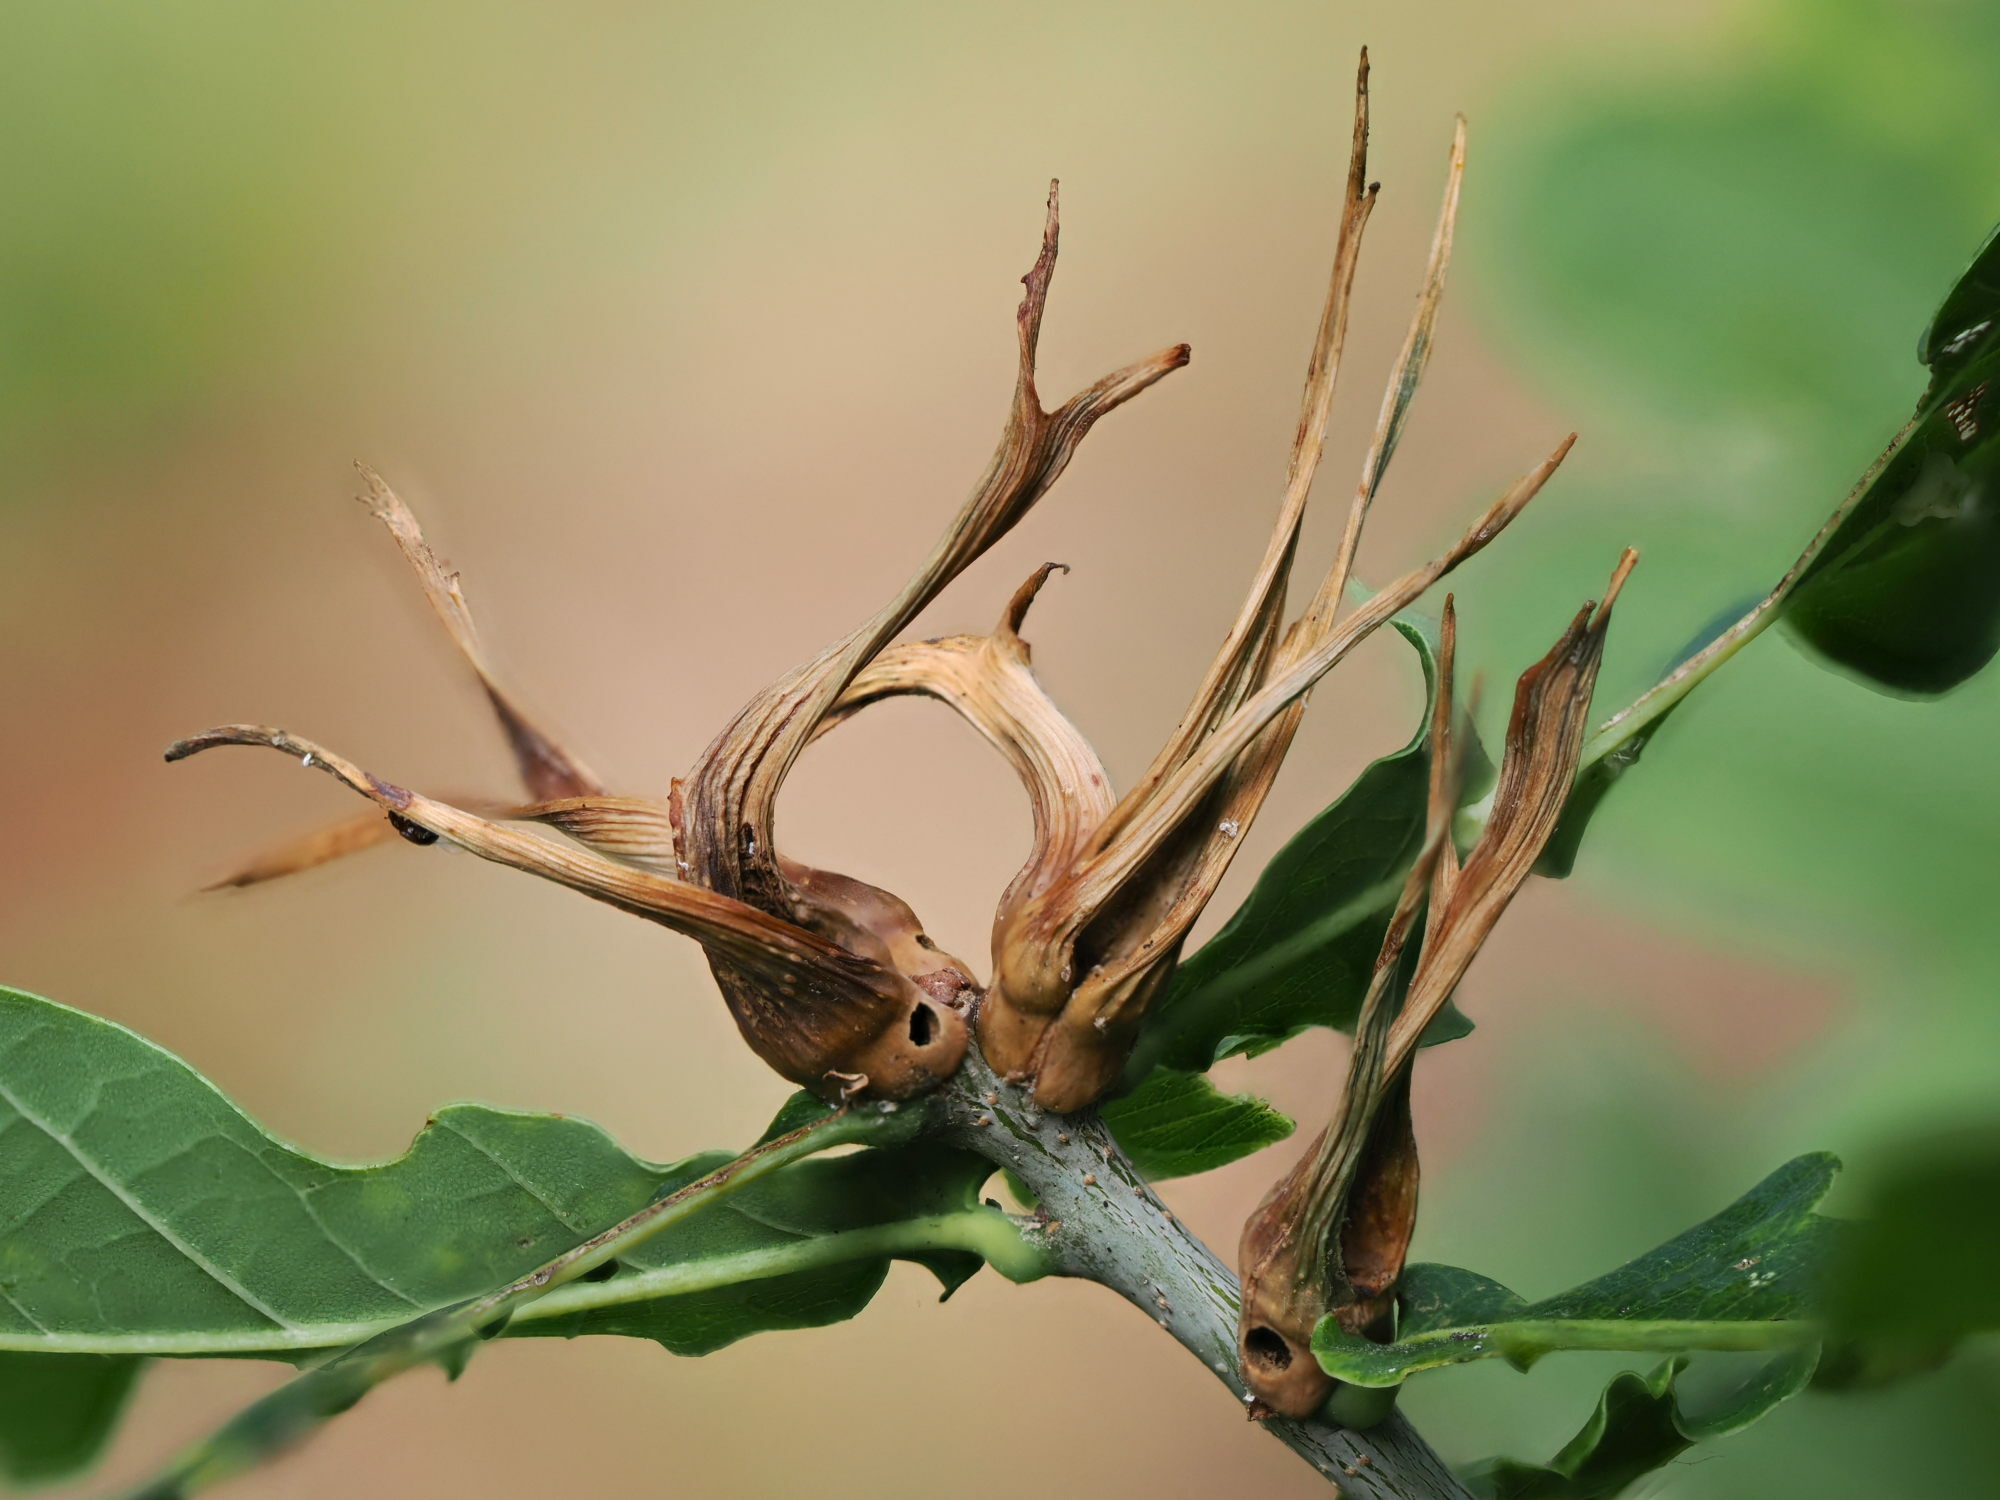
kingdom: Animalia
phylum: Arthropoda
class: Insecta
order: Hymenoptera
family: Cynipidae
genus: Andricus
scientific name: Andricus aries
